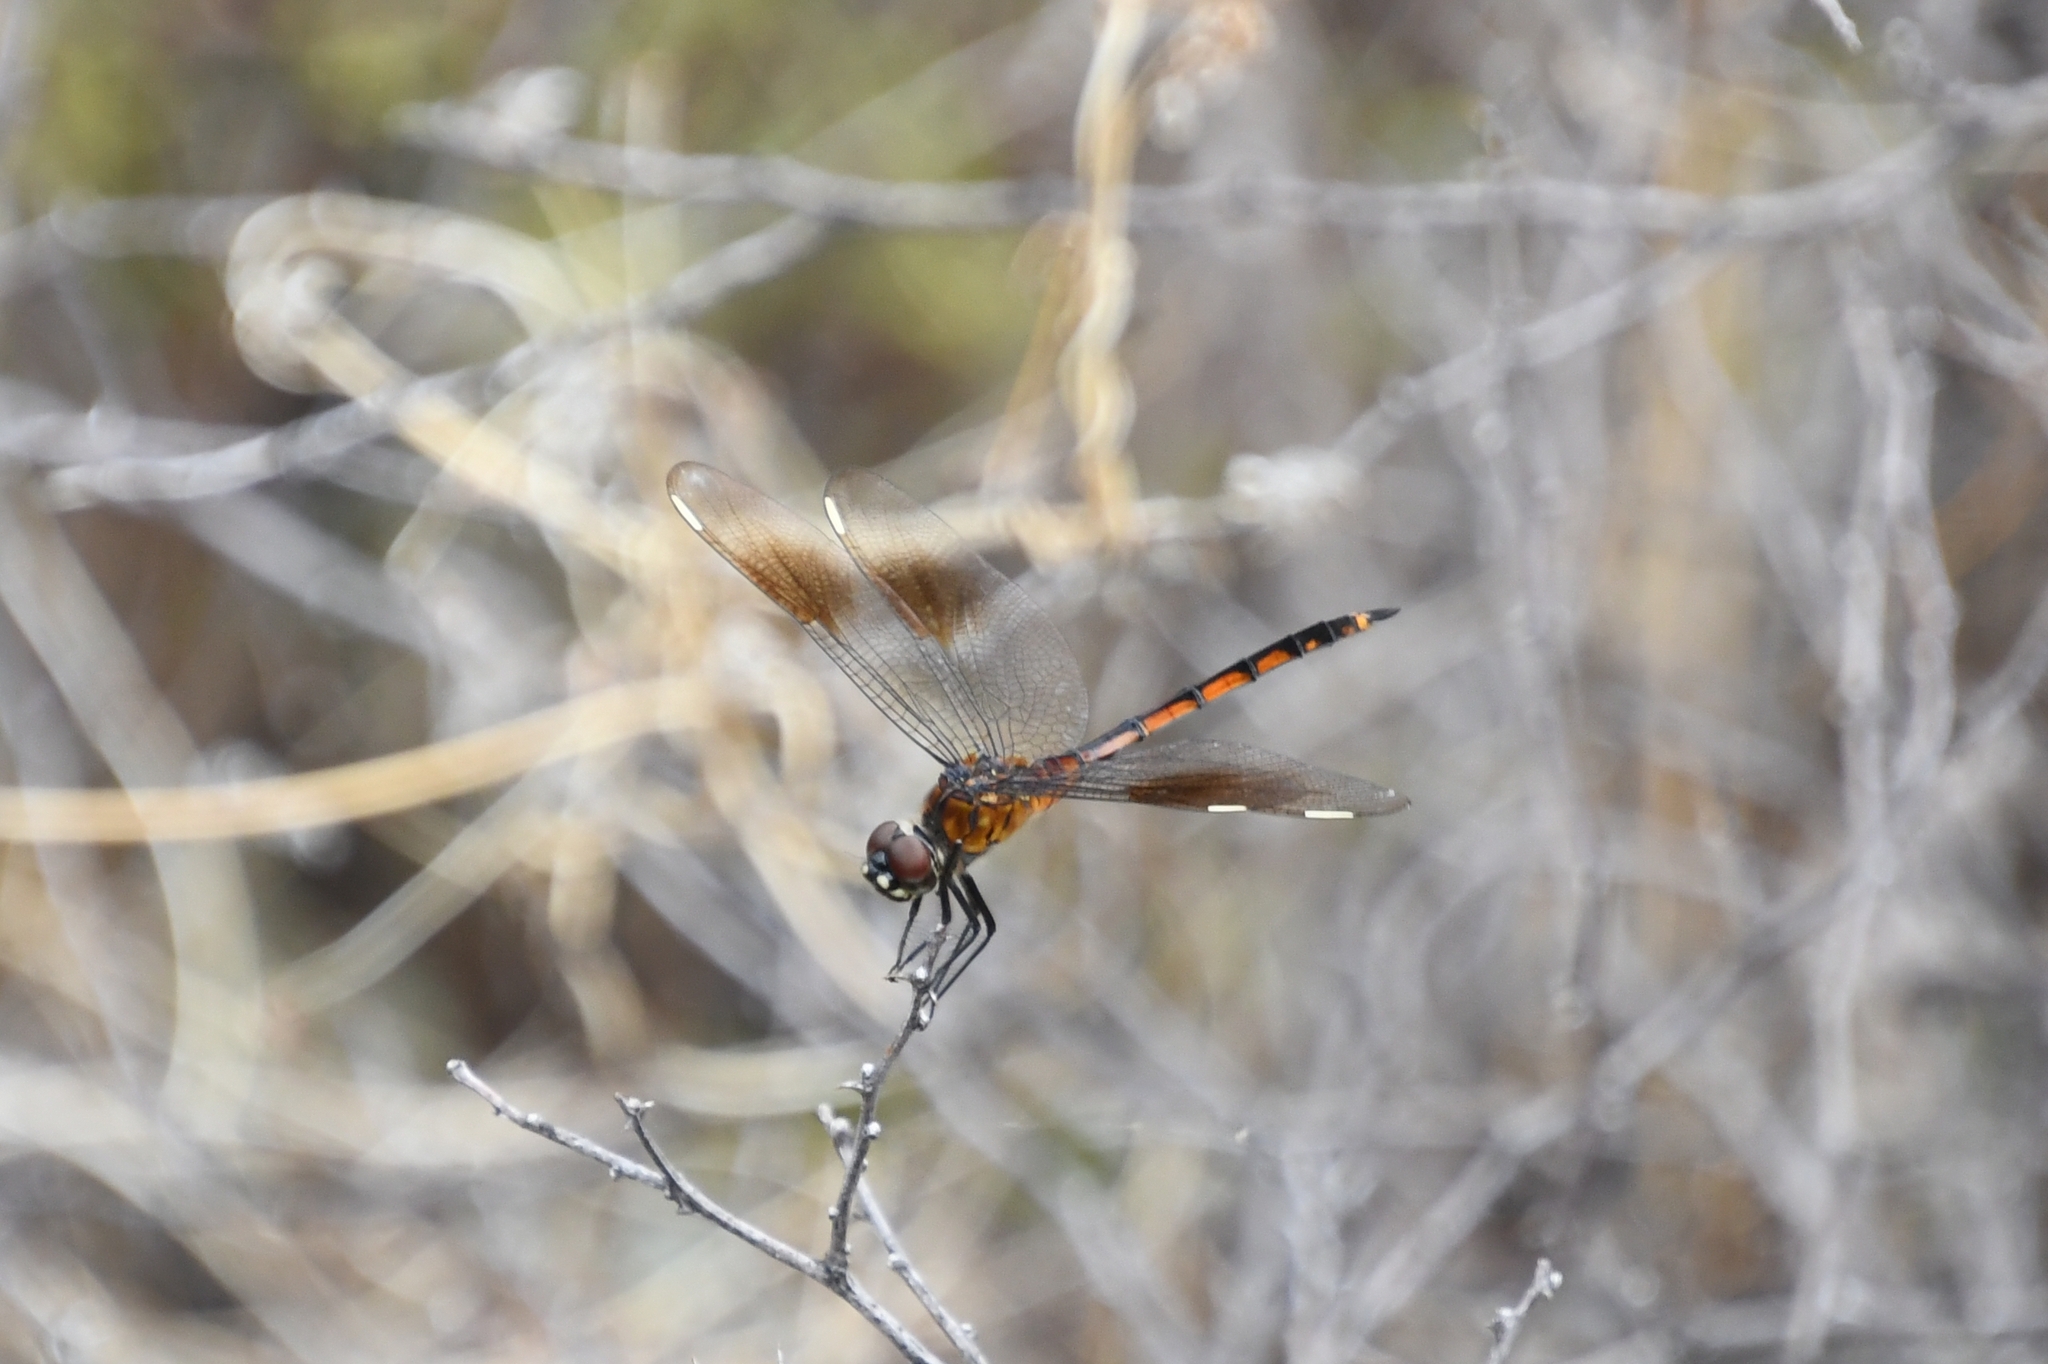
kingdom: Animalia
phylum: Arthropoda
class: Insecta
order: Odonata
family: Libellulidae
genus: Brachymesia
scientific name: Brachymesia gravida
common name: Four-spotted pennant
